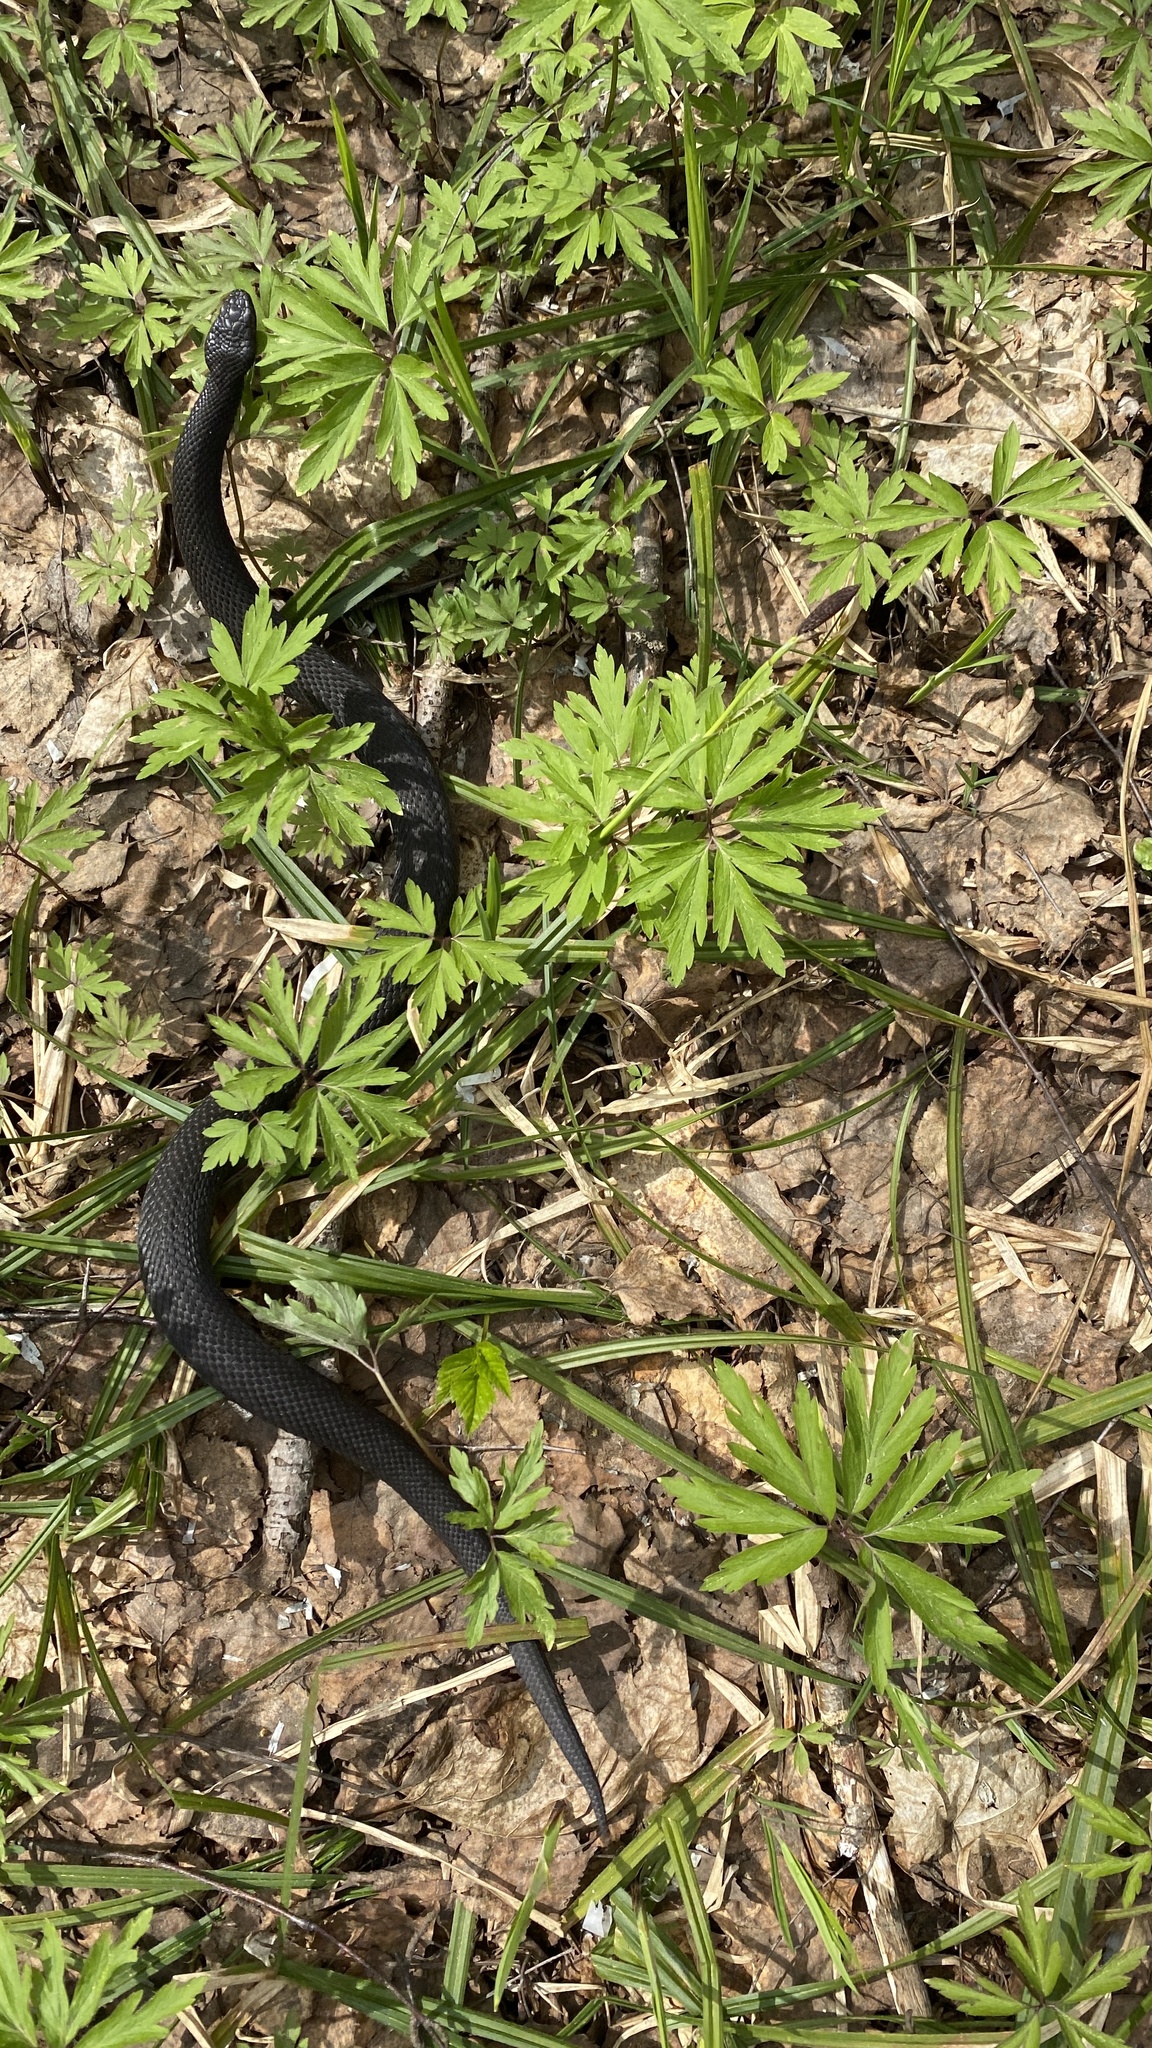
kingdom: Animalia
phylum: Chordata
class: Squamata
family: Viperidae
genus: Vipera
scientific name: Vipera berus
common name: Adder
